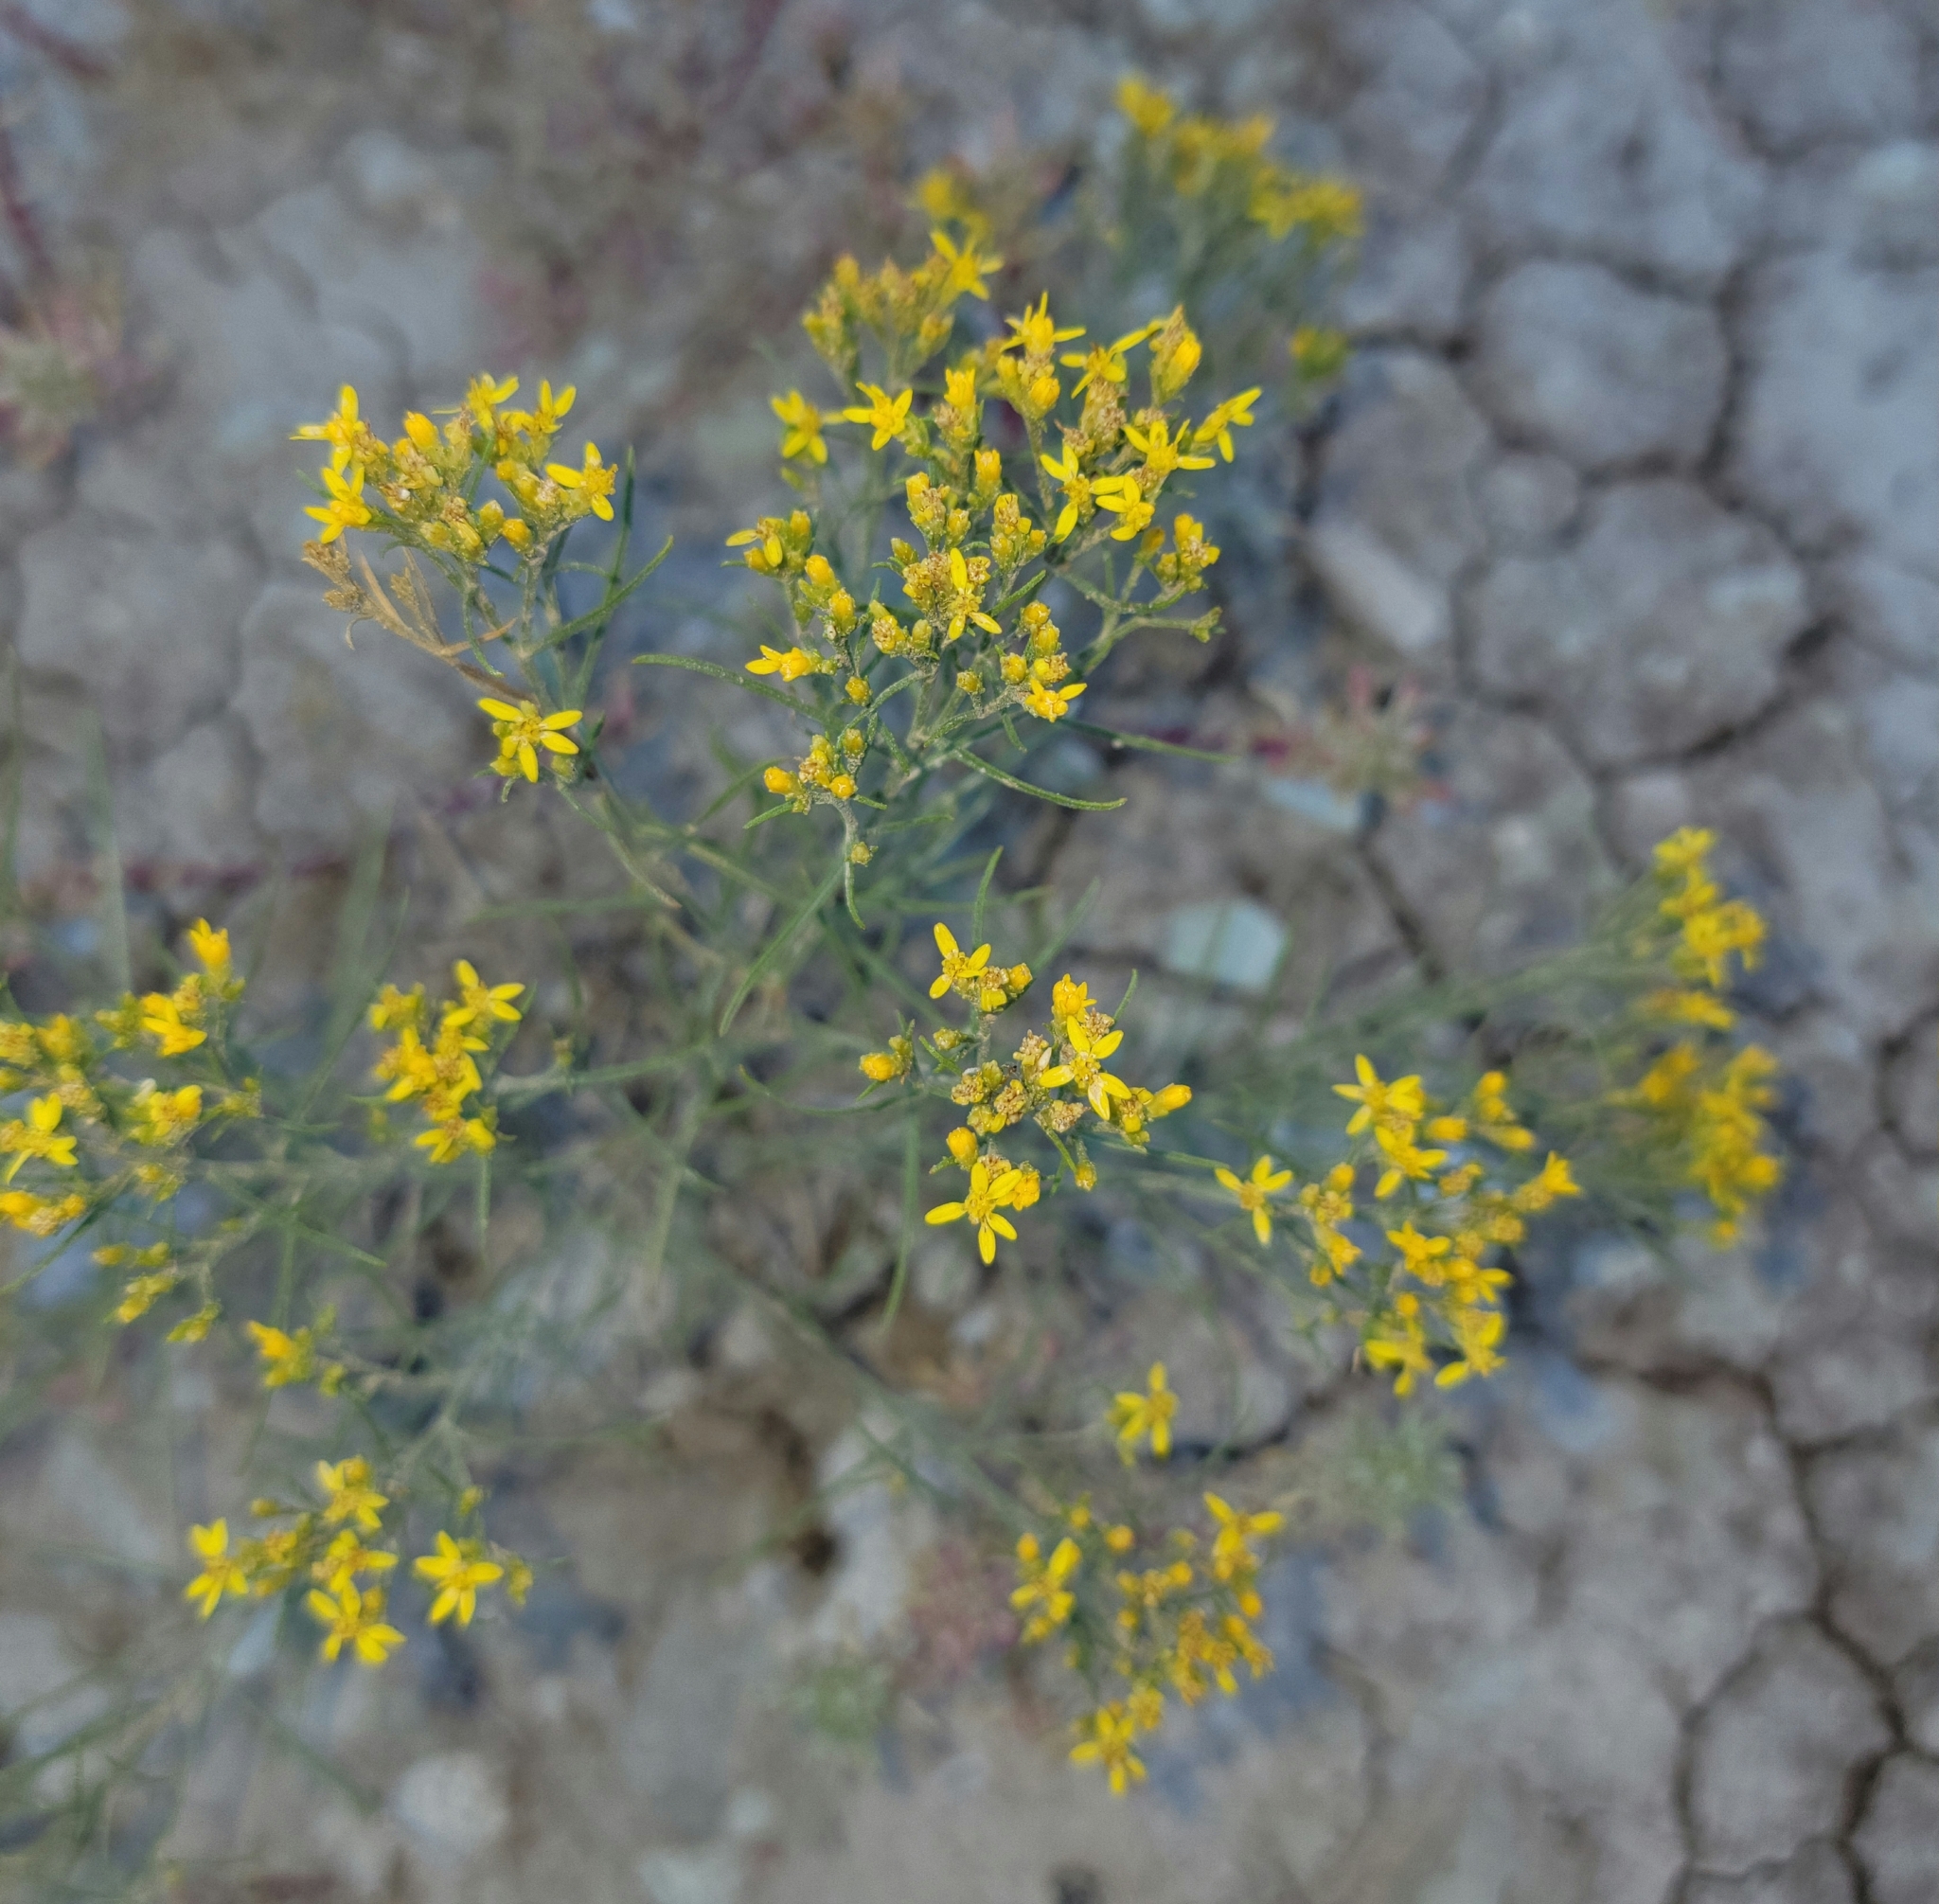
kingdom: Plantae
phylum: Tracheophyta
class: Magnoliopsida
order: Asterales
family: Asteraceae
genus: Gutierrezia
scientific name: Gutierrezia sarothrae
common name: Broom snakeweed
